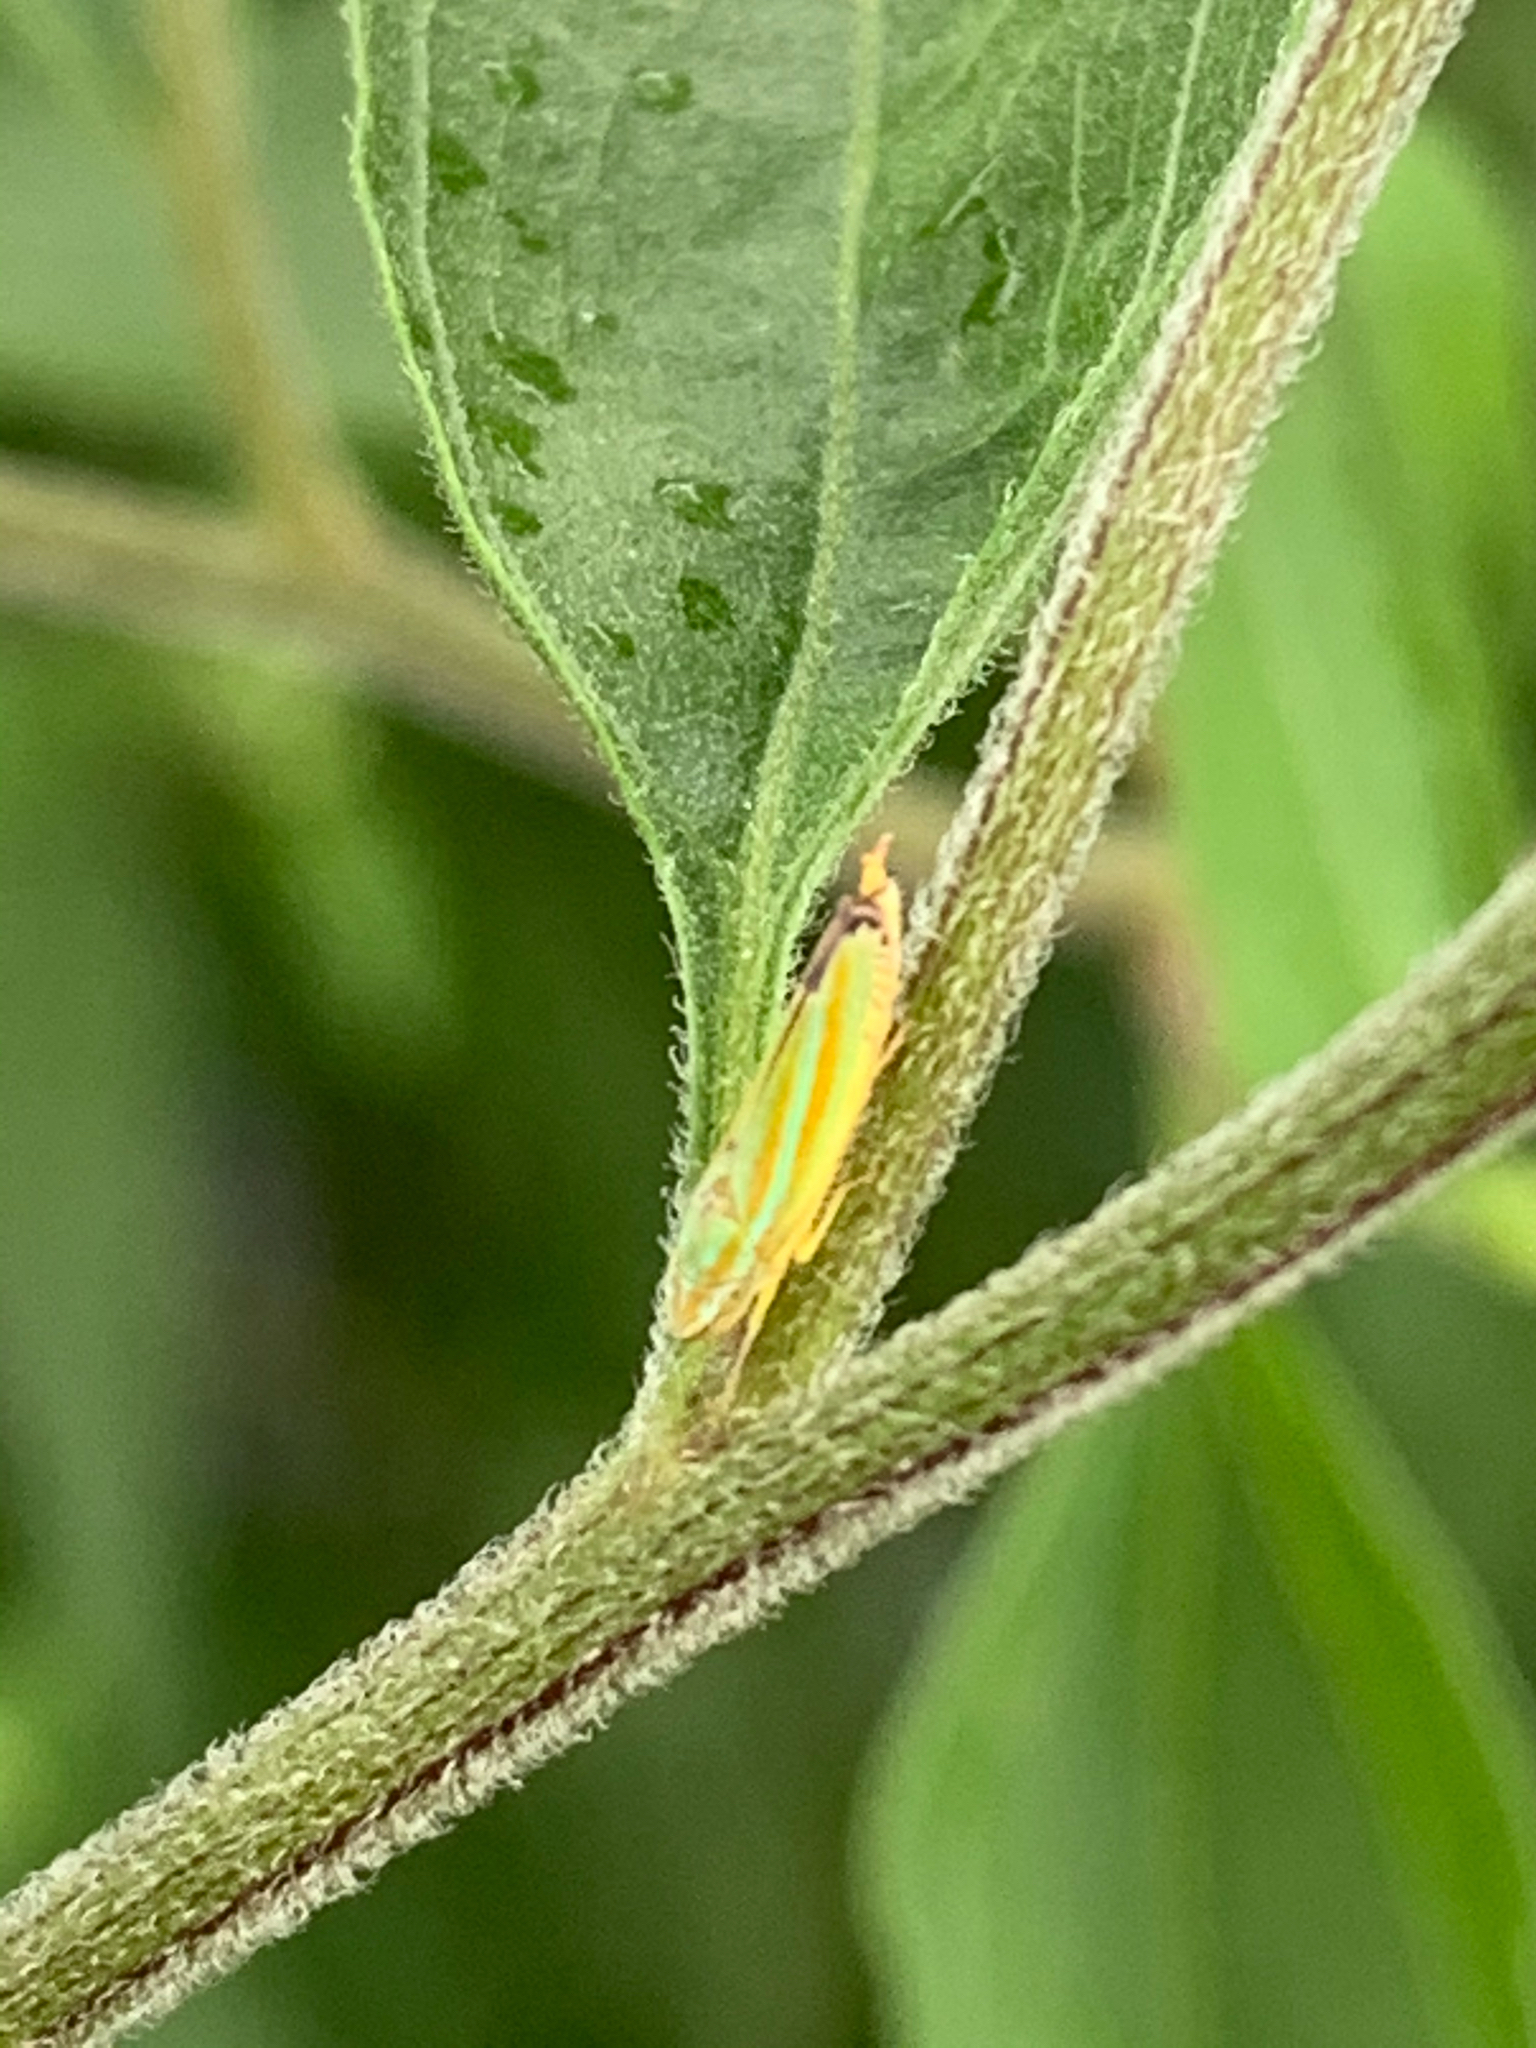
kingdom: Animalia
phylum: Arthropoda
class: Insecta
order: Hemiptera
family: Cicadellidae
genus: Graphocephala
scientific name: Graphocephala versuta
